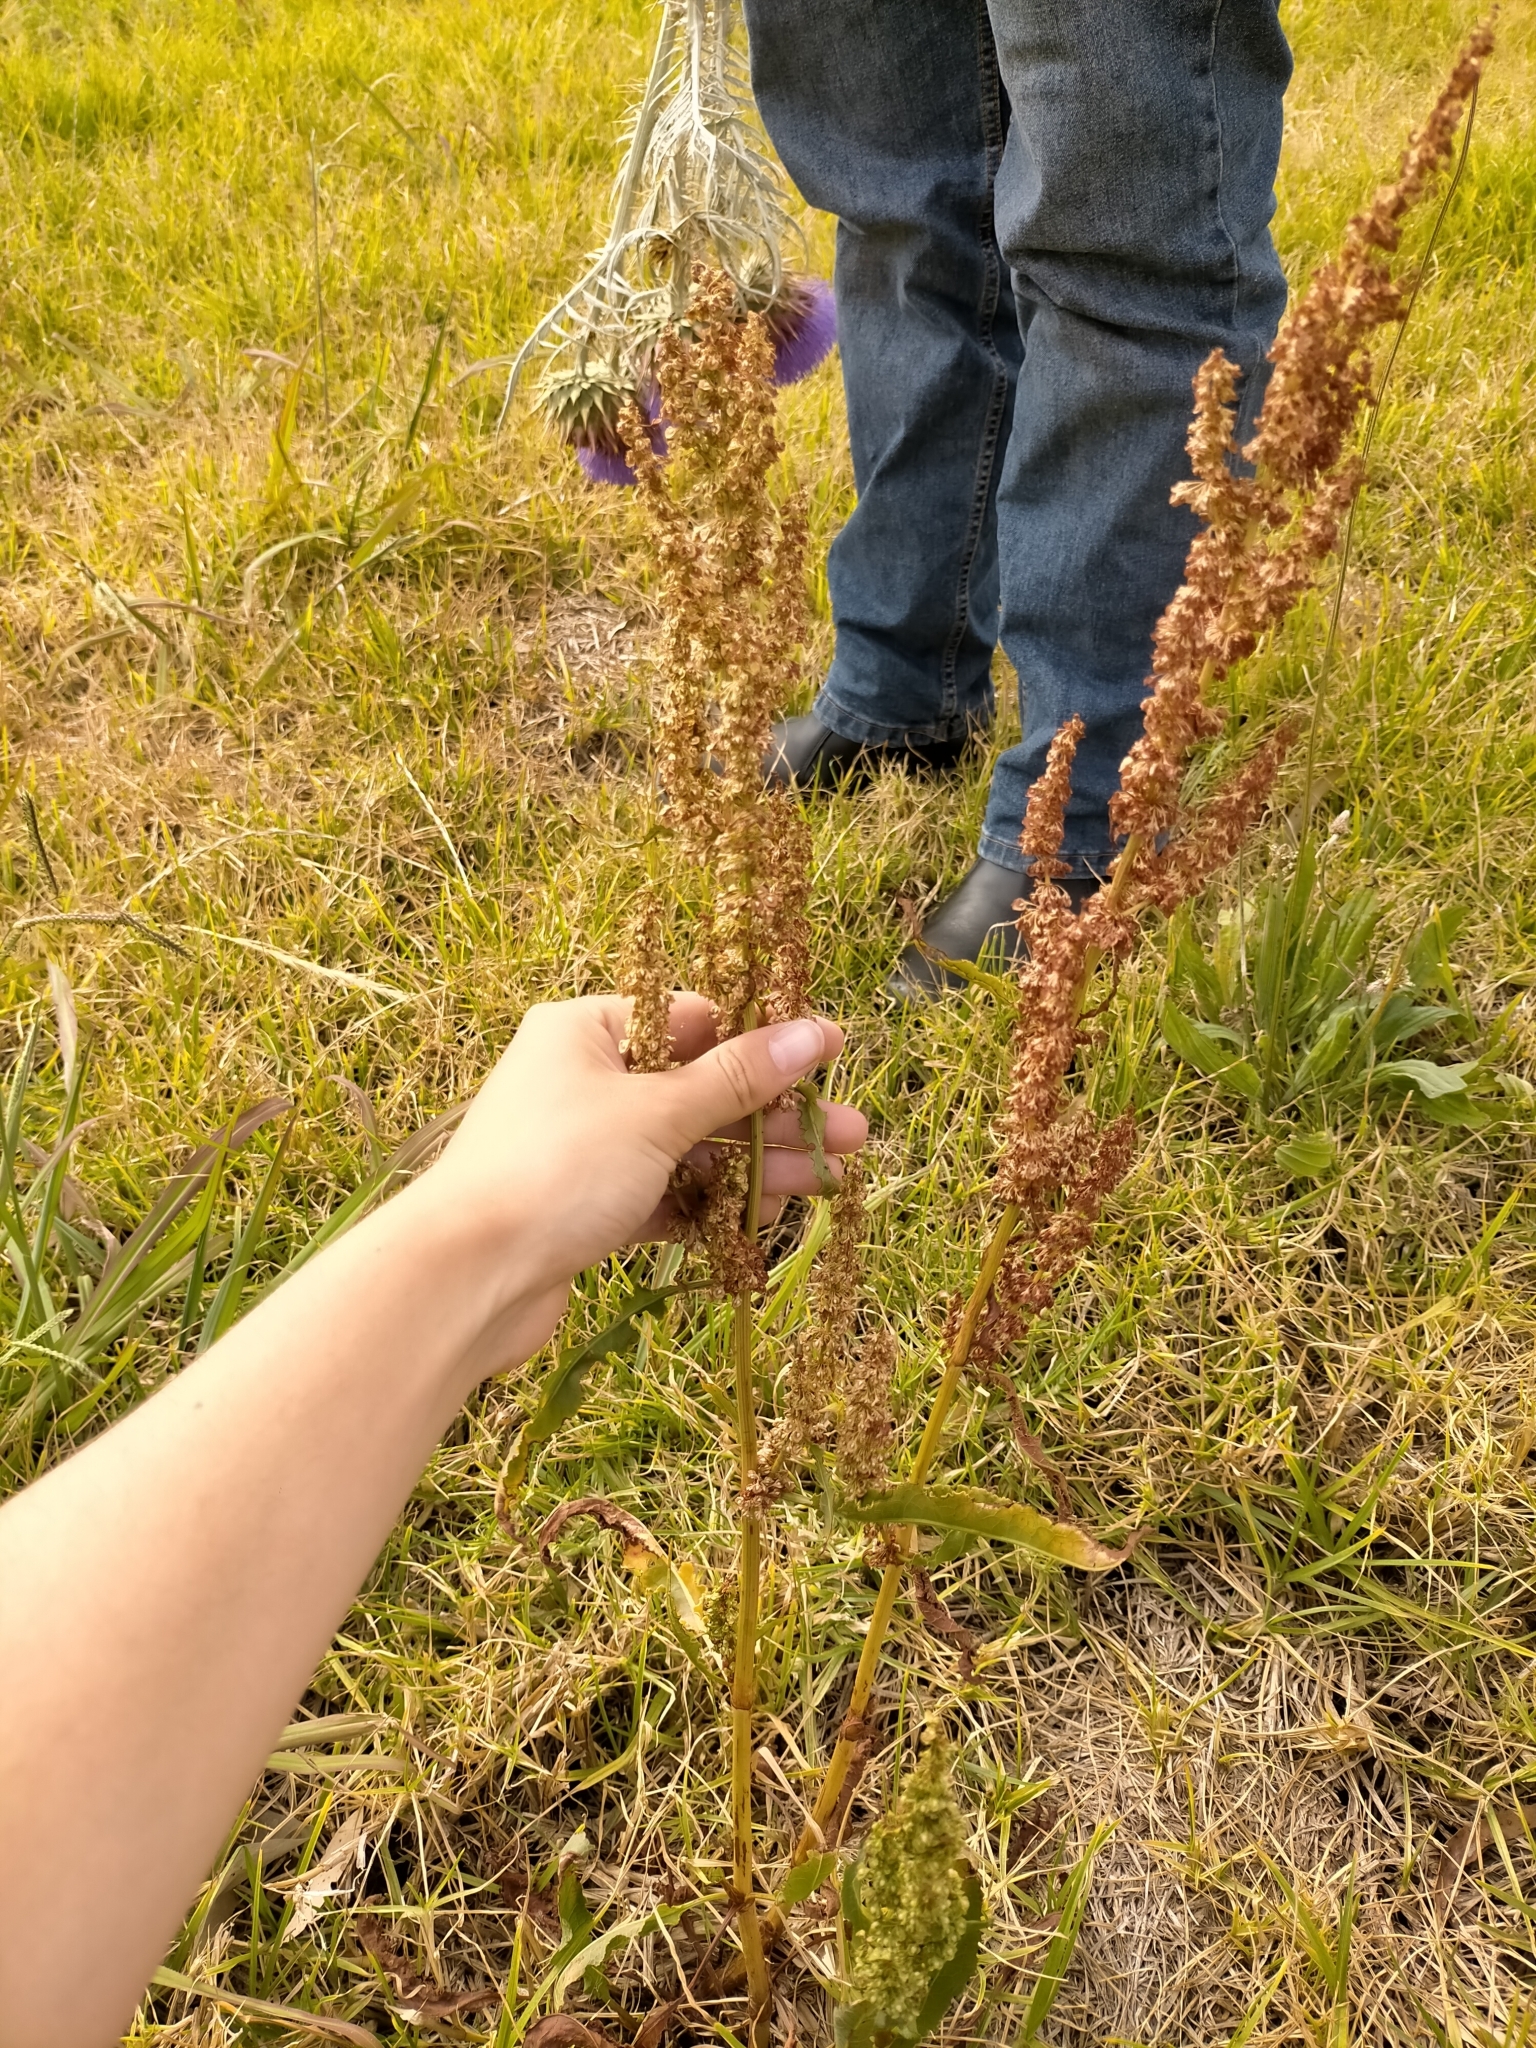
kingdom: Plantae
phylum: Tracheophyta
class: Magnoliopsida
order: Caryophyllales
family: Polygonaceae
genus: Rumex
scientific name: Rumex crispus
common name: Curled dock
